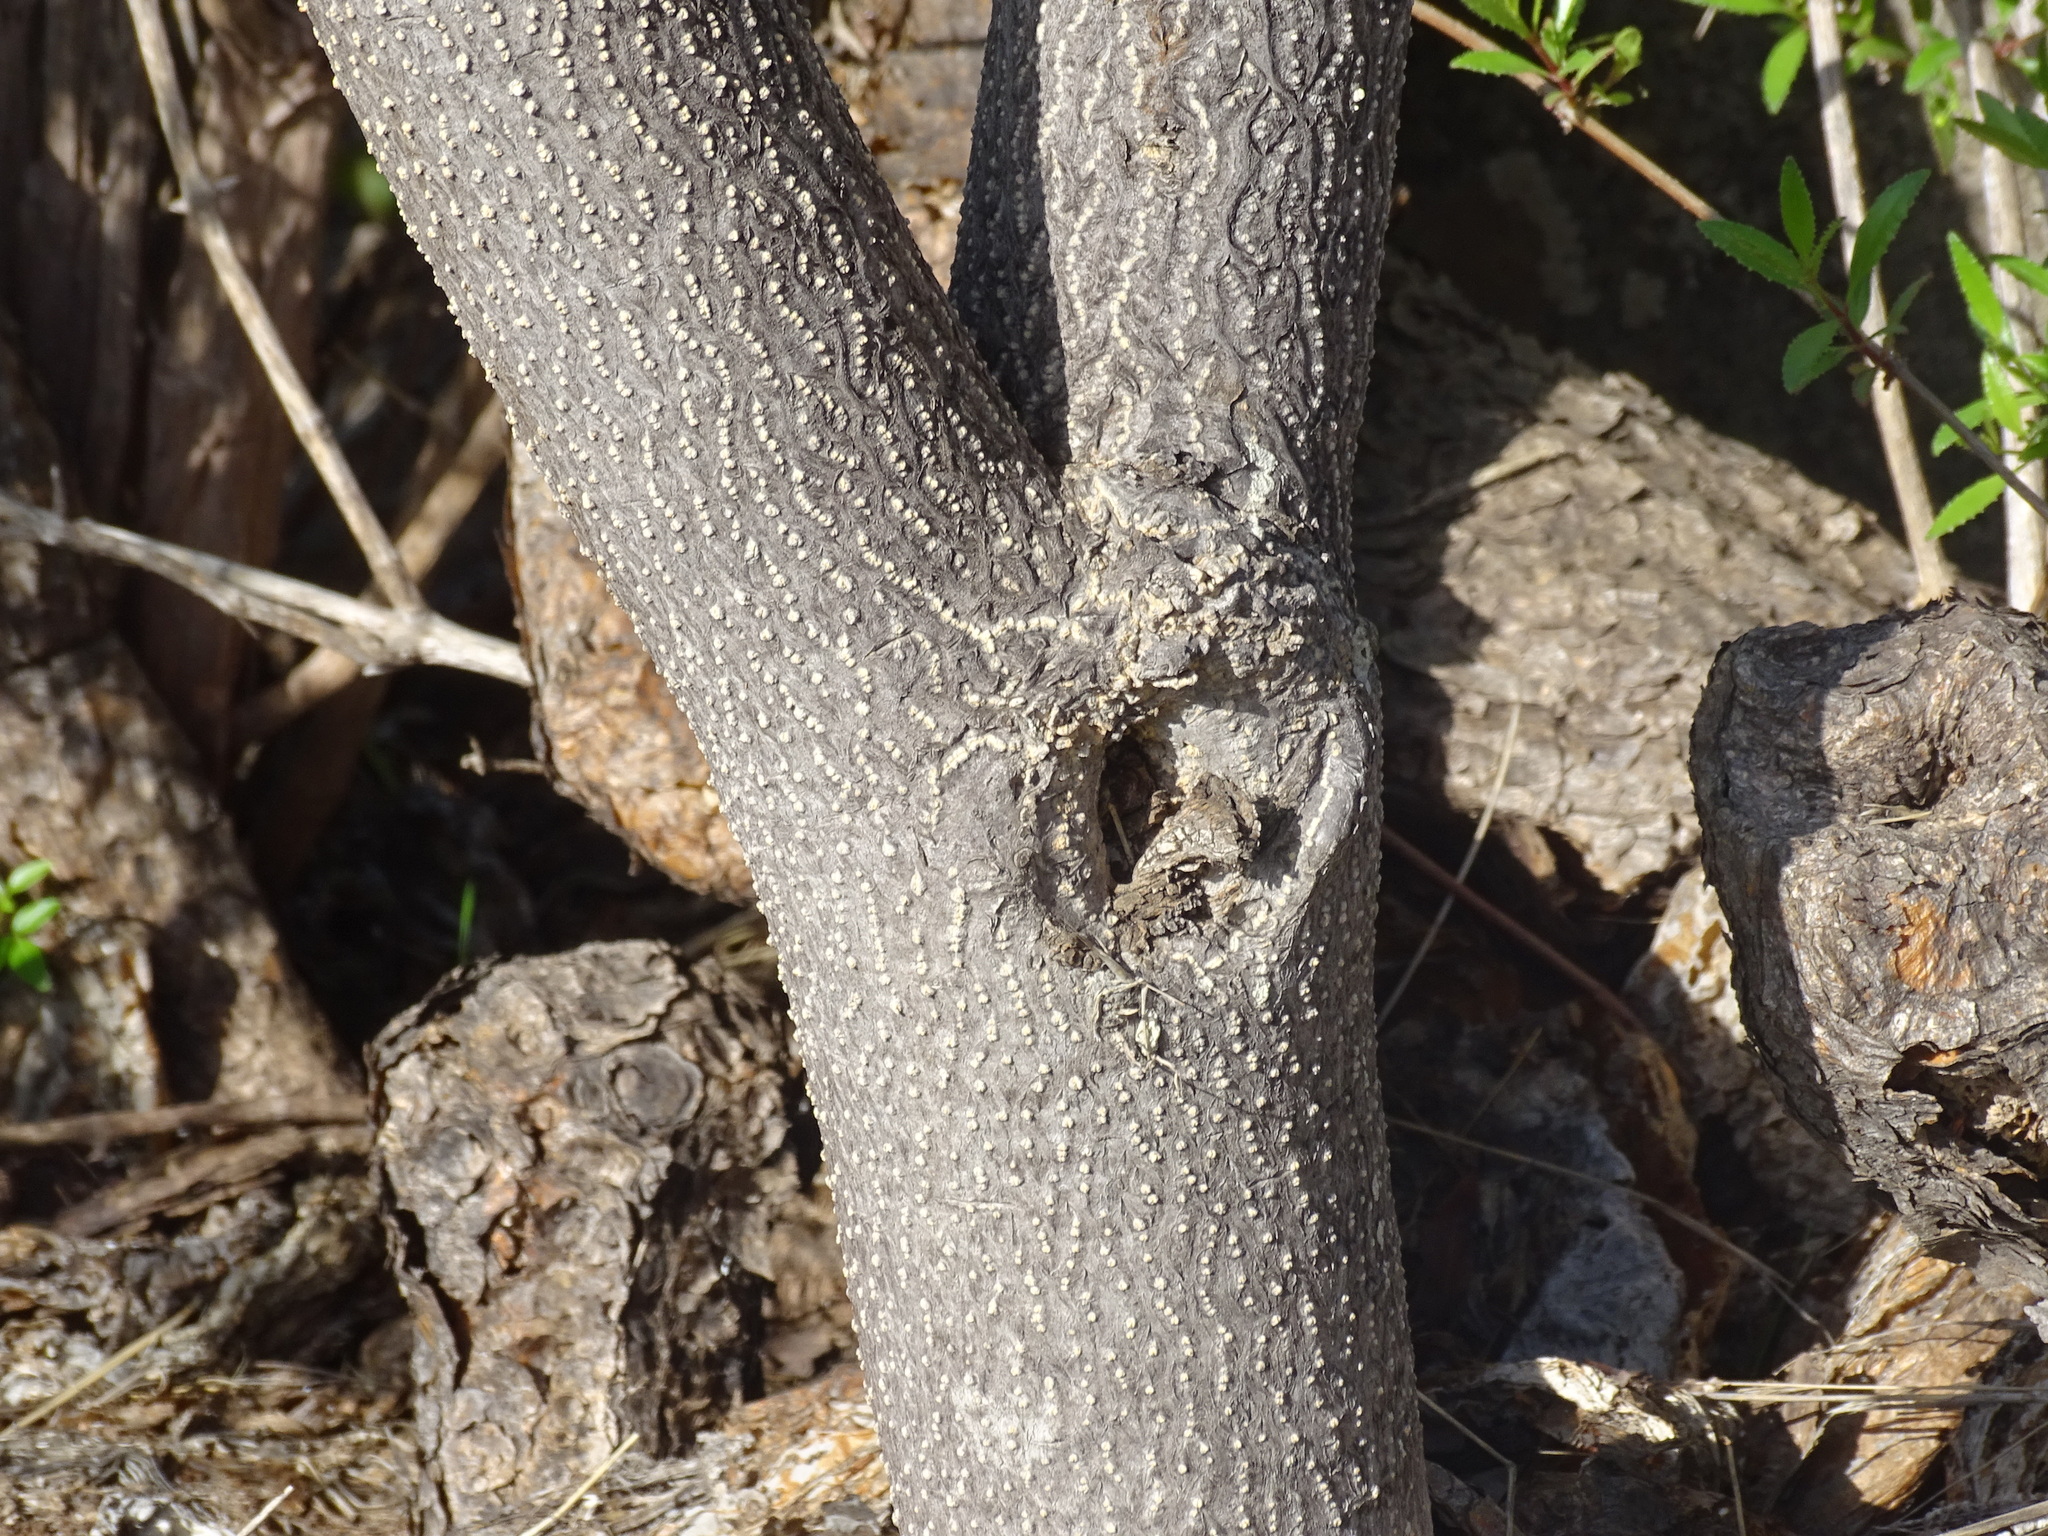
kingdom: Plantae
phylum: Tracheophyta
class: Magnoliopsida
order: Malpighiales
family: Euphorbiaceae
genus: Euphorbia
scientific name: Euphorbia lamarckii
